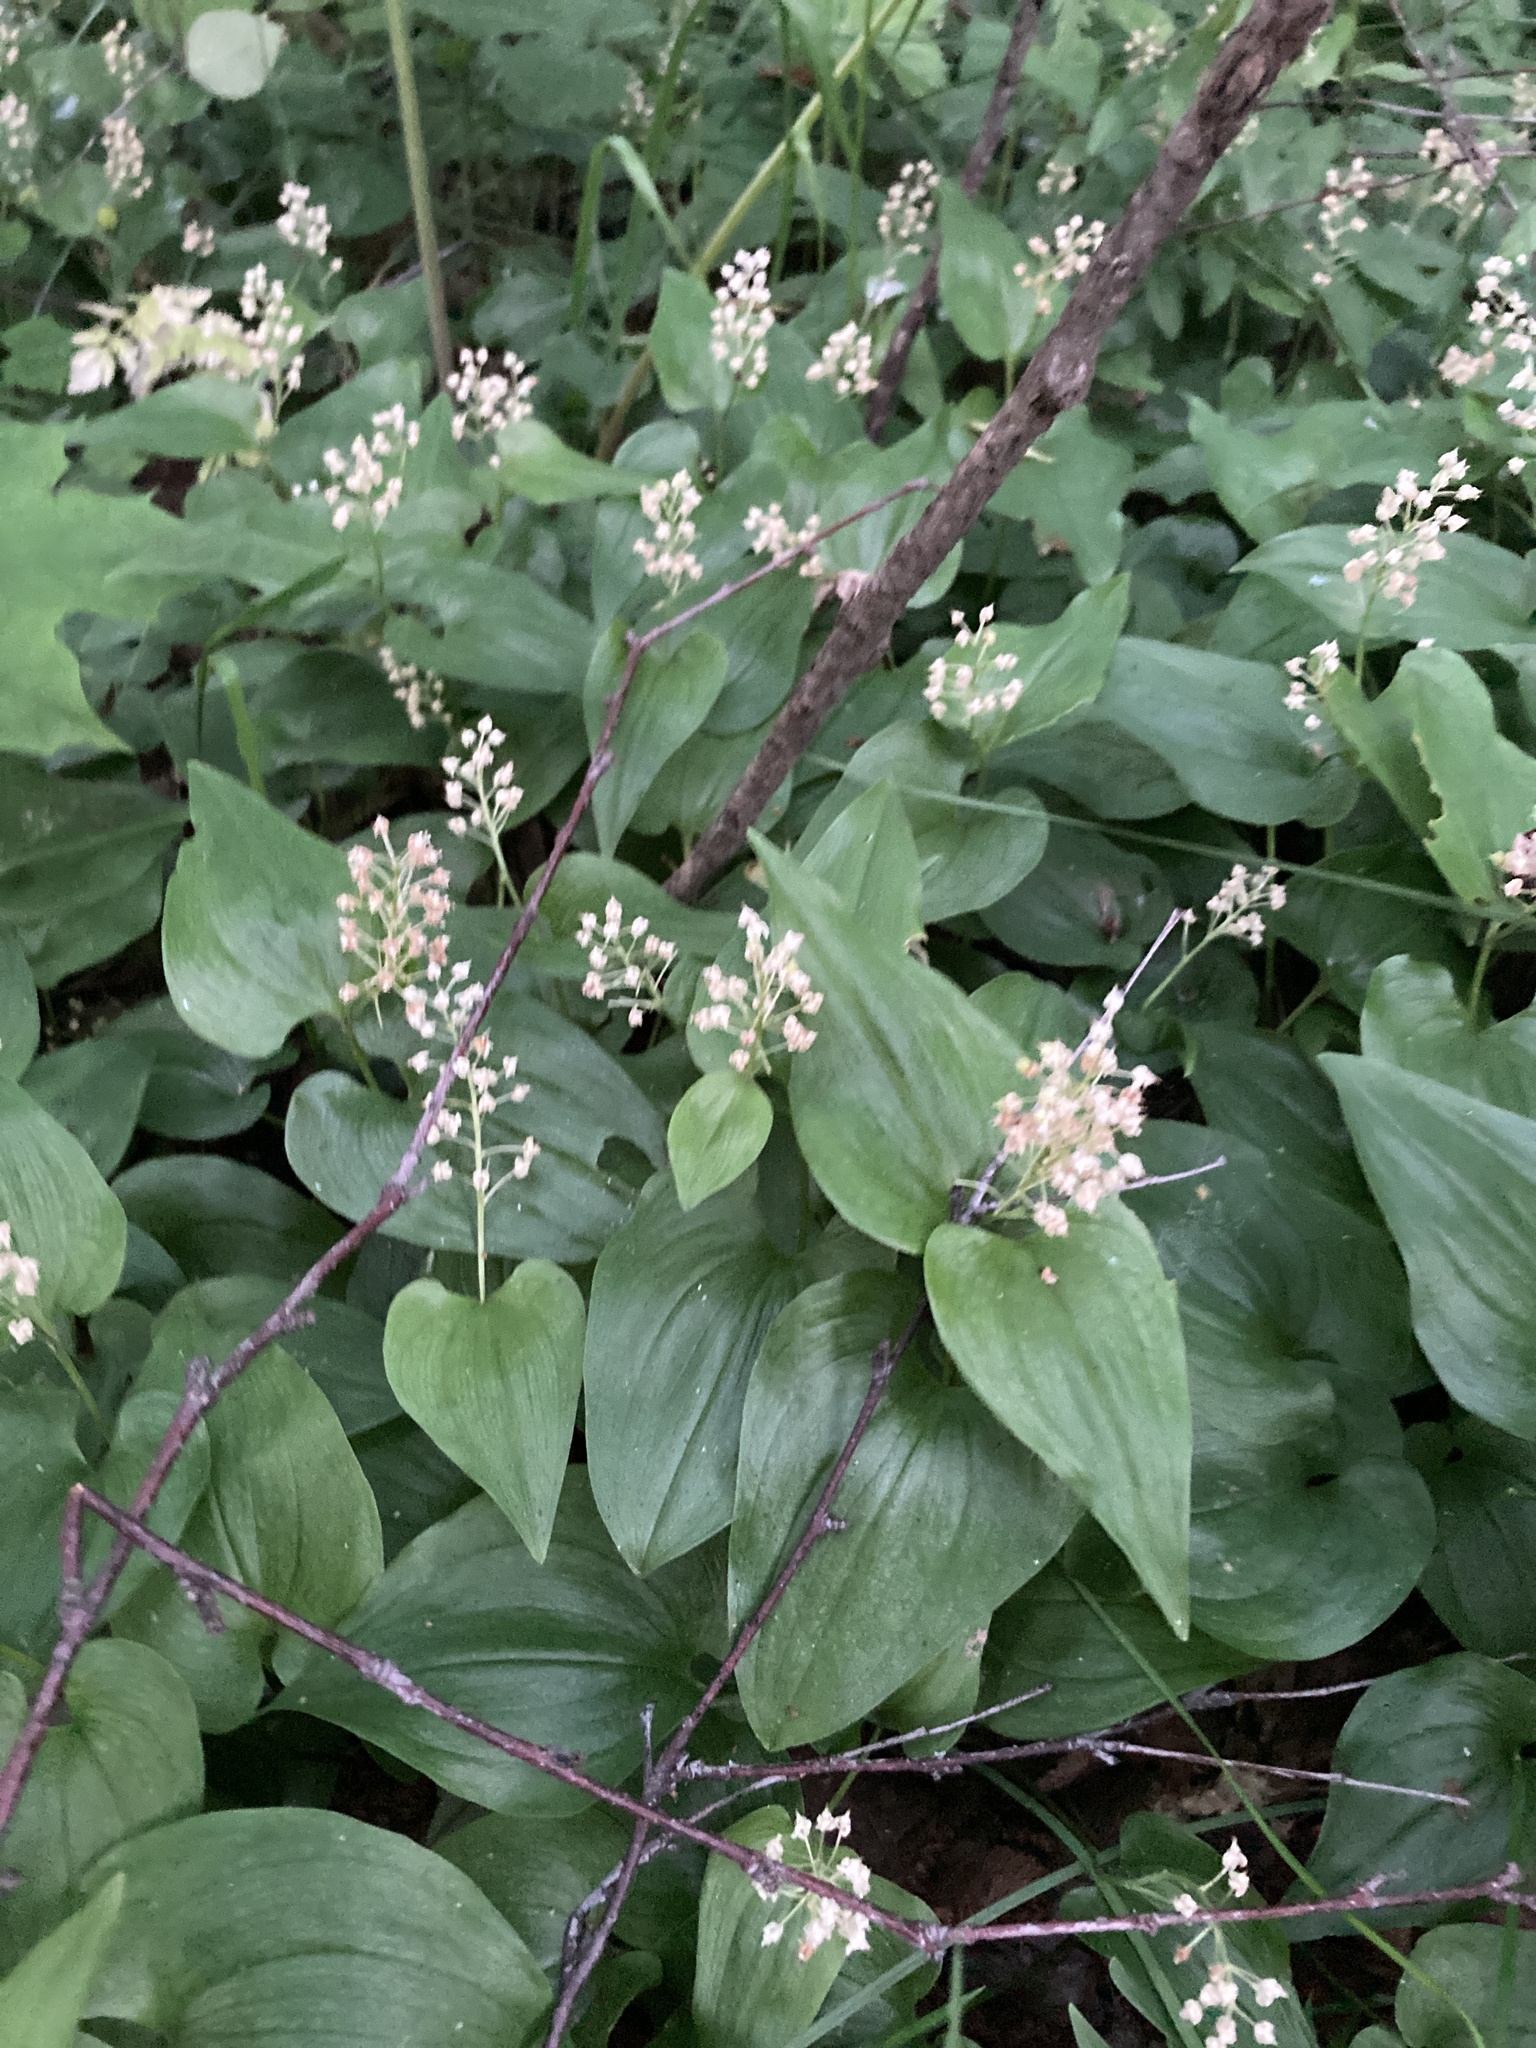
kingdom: Plantae
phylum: Tracheophyta
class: Liliopsida
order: Asparagales
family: Asparagaceae
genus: Maianthemum
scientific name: Maianthemum bifolium
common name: May lily
